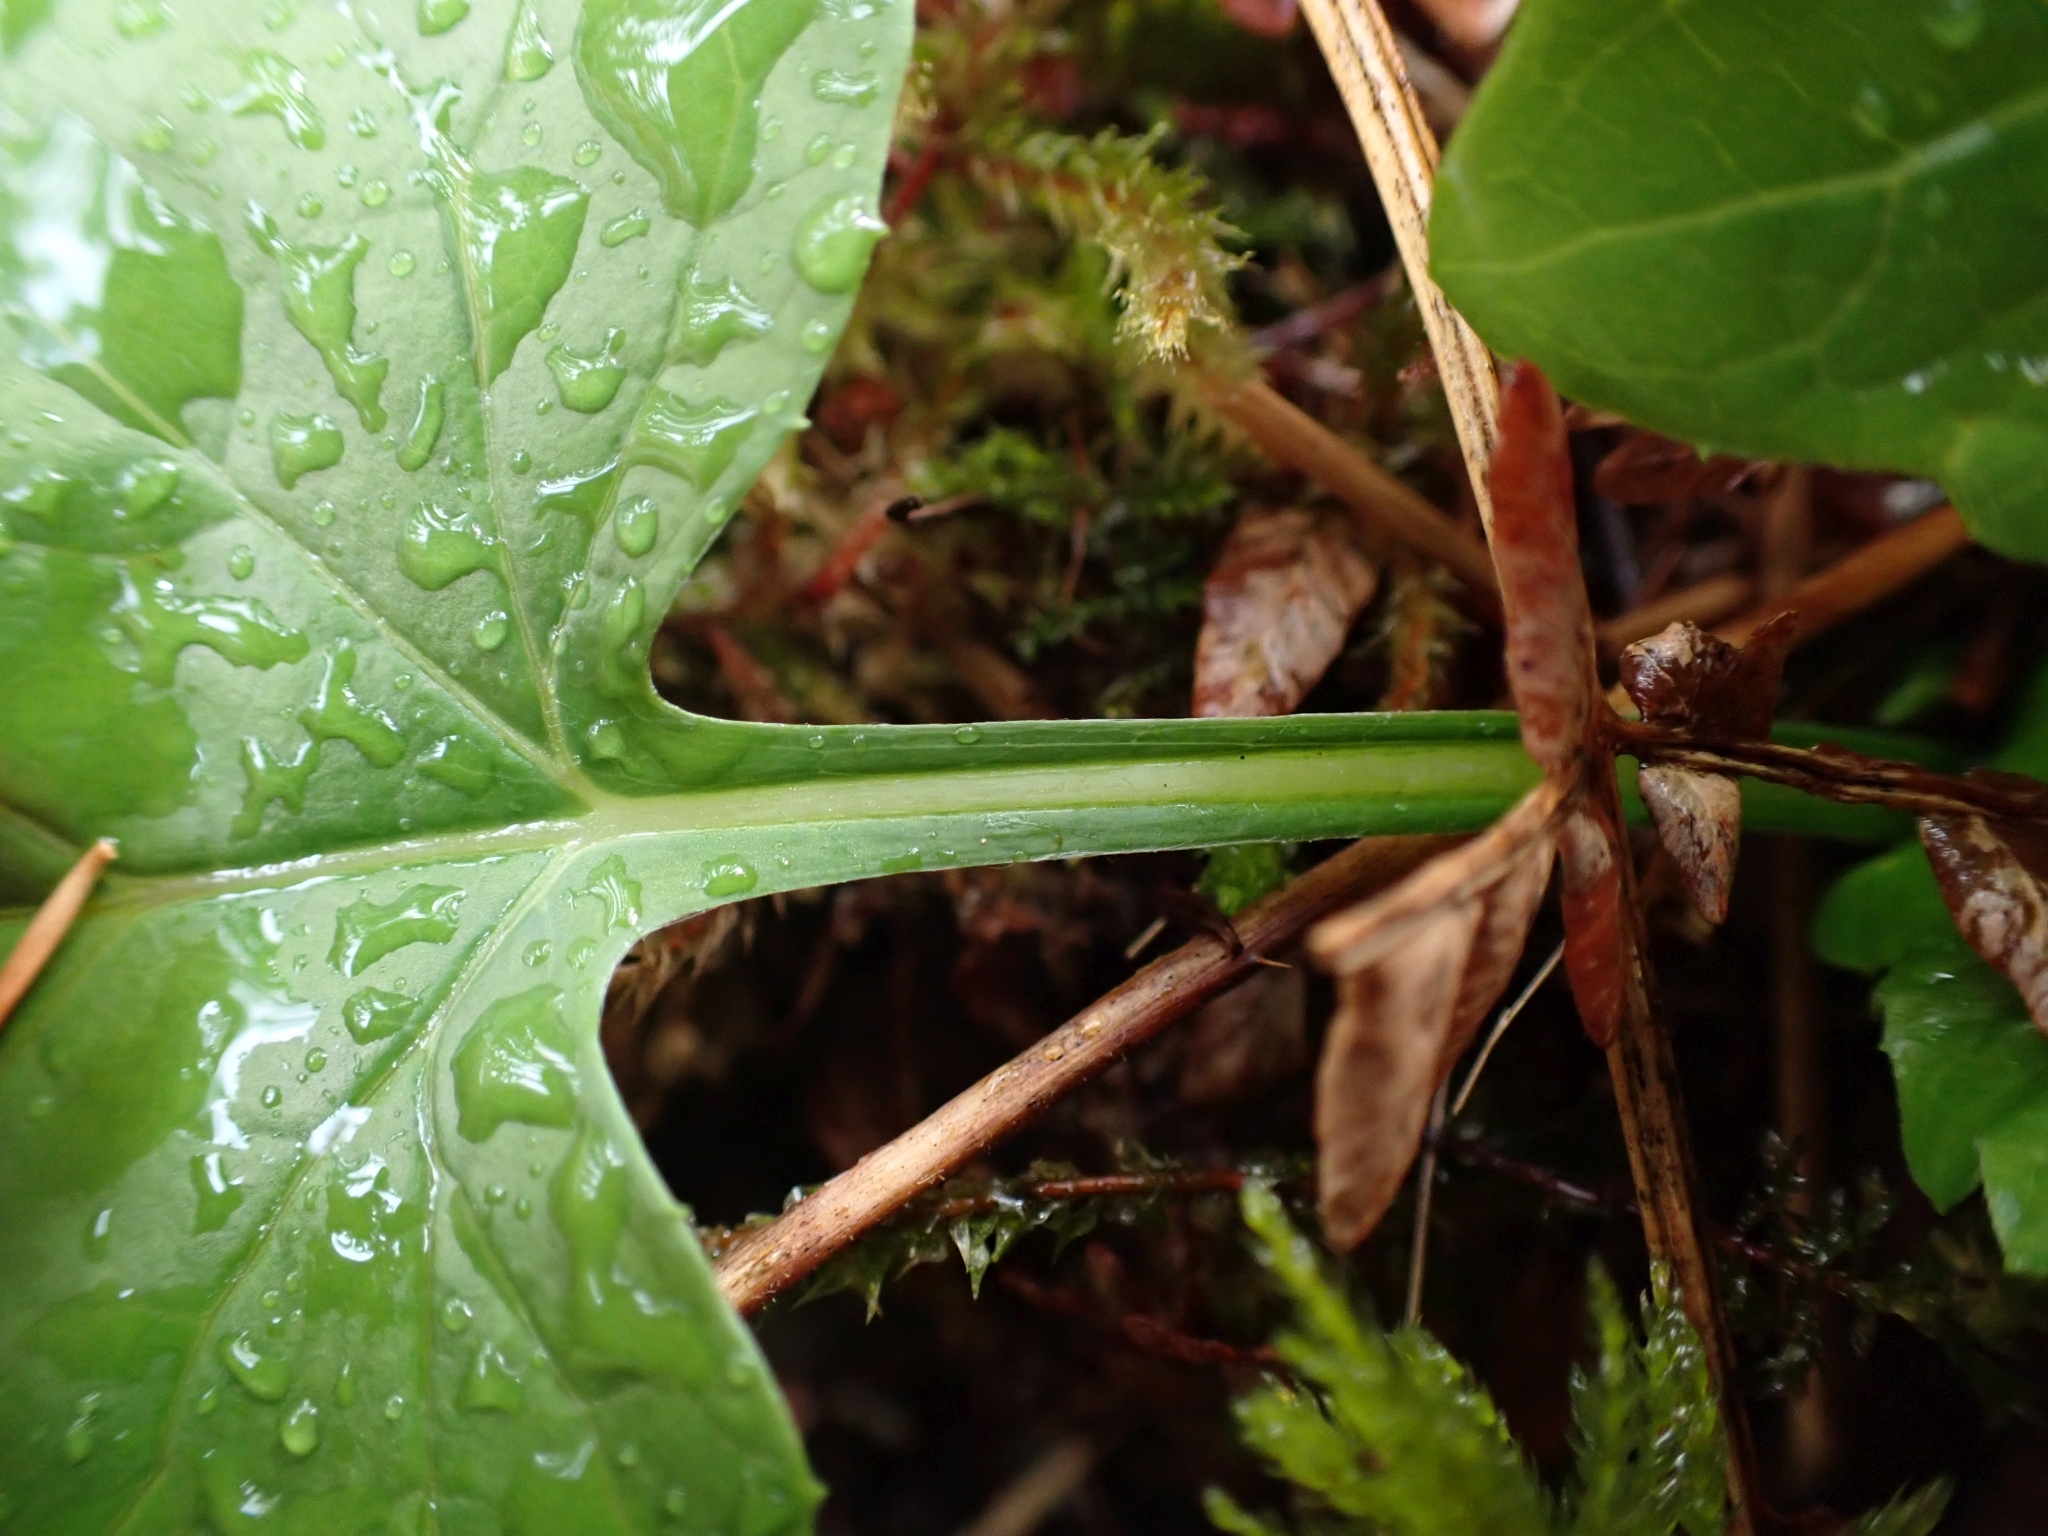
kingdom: Plantae
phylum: Tracheophyta
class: Magnoliopsida
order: Asterales
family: Asteraceae
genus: Adenocaulon
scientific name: Adenocaulon bicolor
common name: Trailplant
